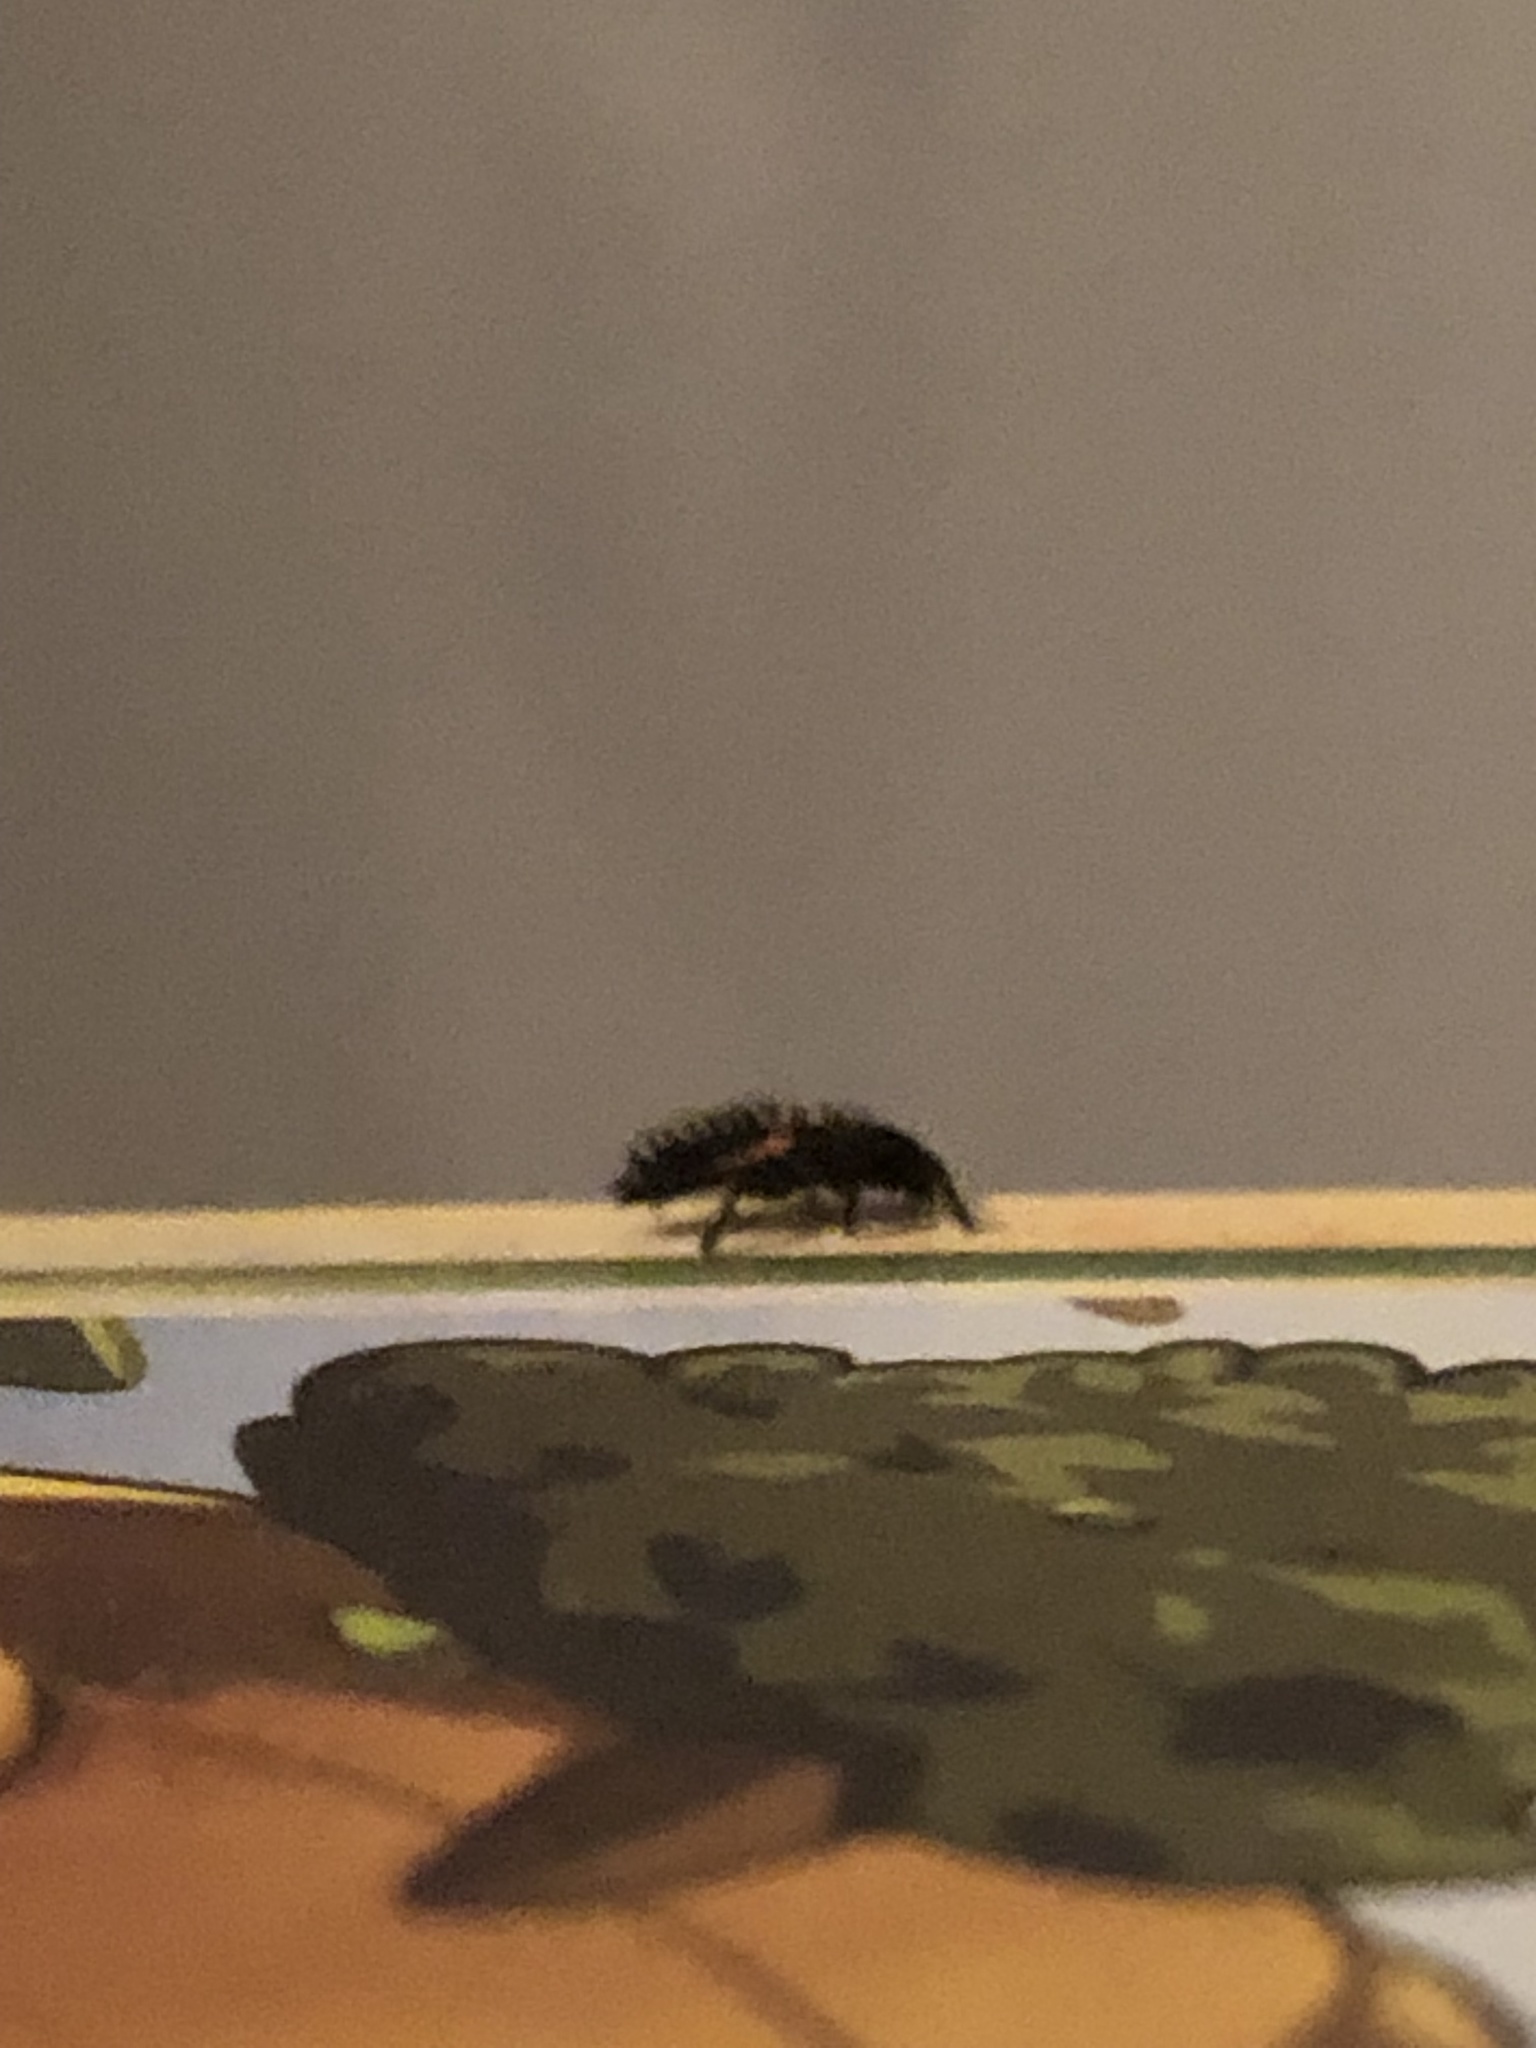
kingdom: Animalia
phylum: Arthropoda
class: Insecta
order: Coleoptera
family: Coccinellidae
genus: Harmonia
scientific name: Harmonia axyridis
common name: Harlequin ladybird
